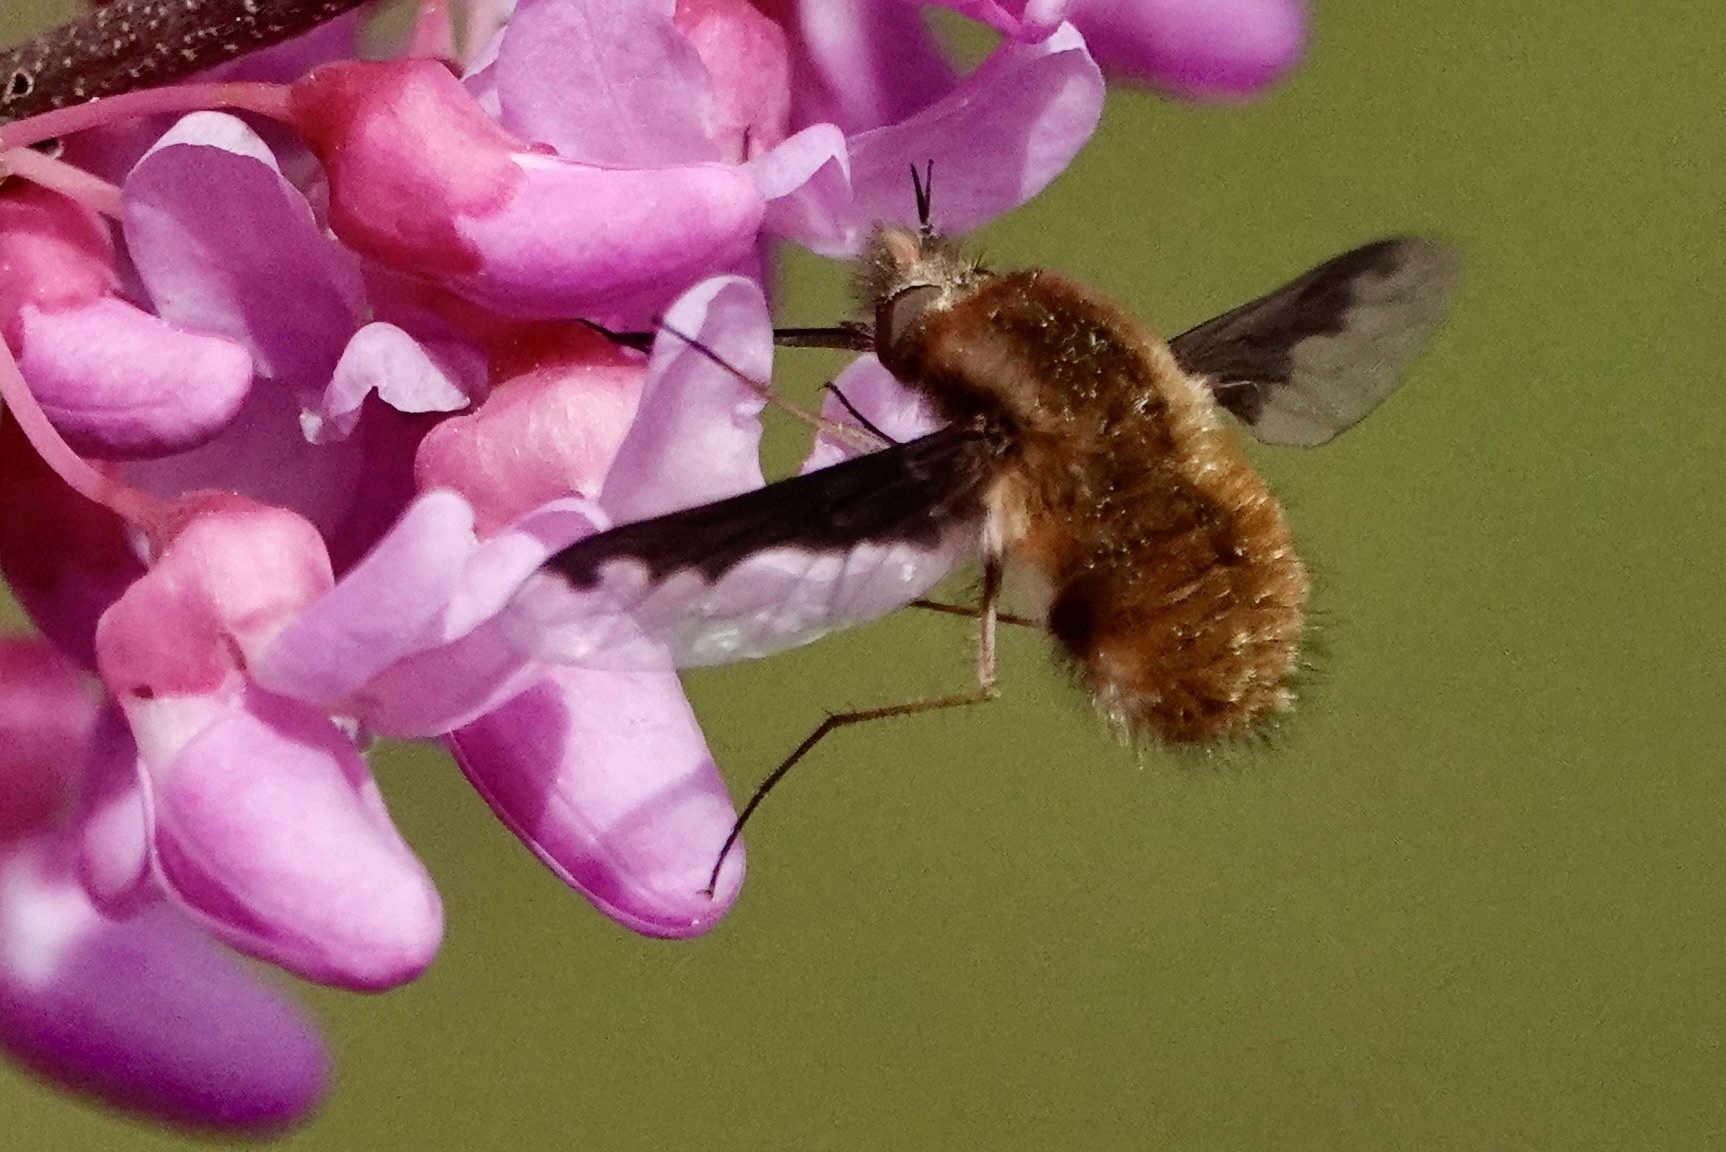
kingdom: Animalia
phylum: Arthropoda
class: Insecta
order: Diptera
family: Bombyliidae
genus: Bombylius
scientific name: Bombylius major
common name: Bee fly
